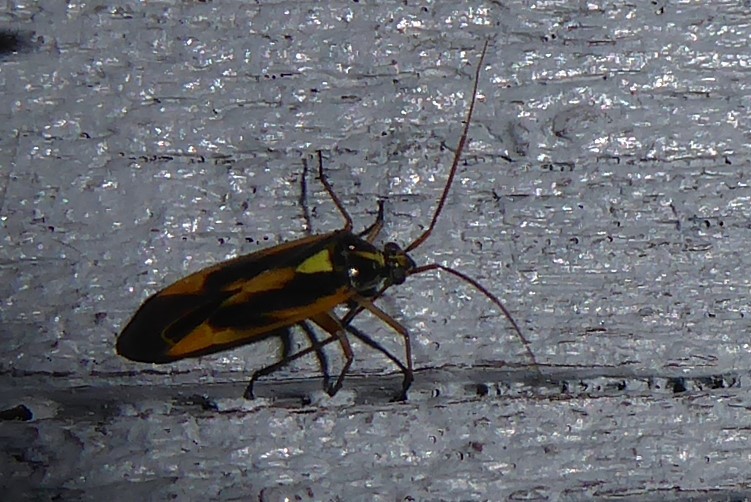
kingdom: Animalia
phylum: Arthropoda
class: Insecta
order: Hemiptera
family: Miridae
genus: Stenotus
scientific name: Stenotus binotatus
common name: Plant bug
